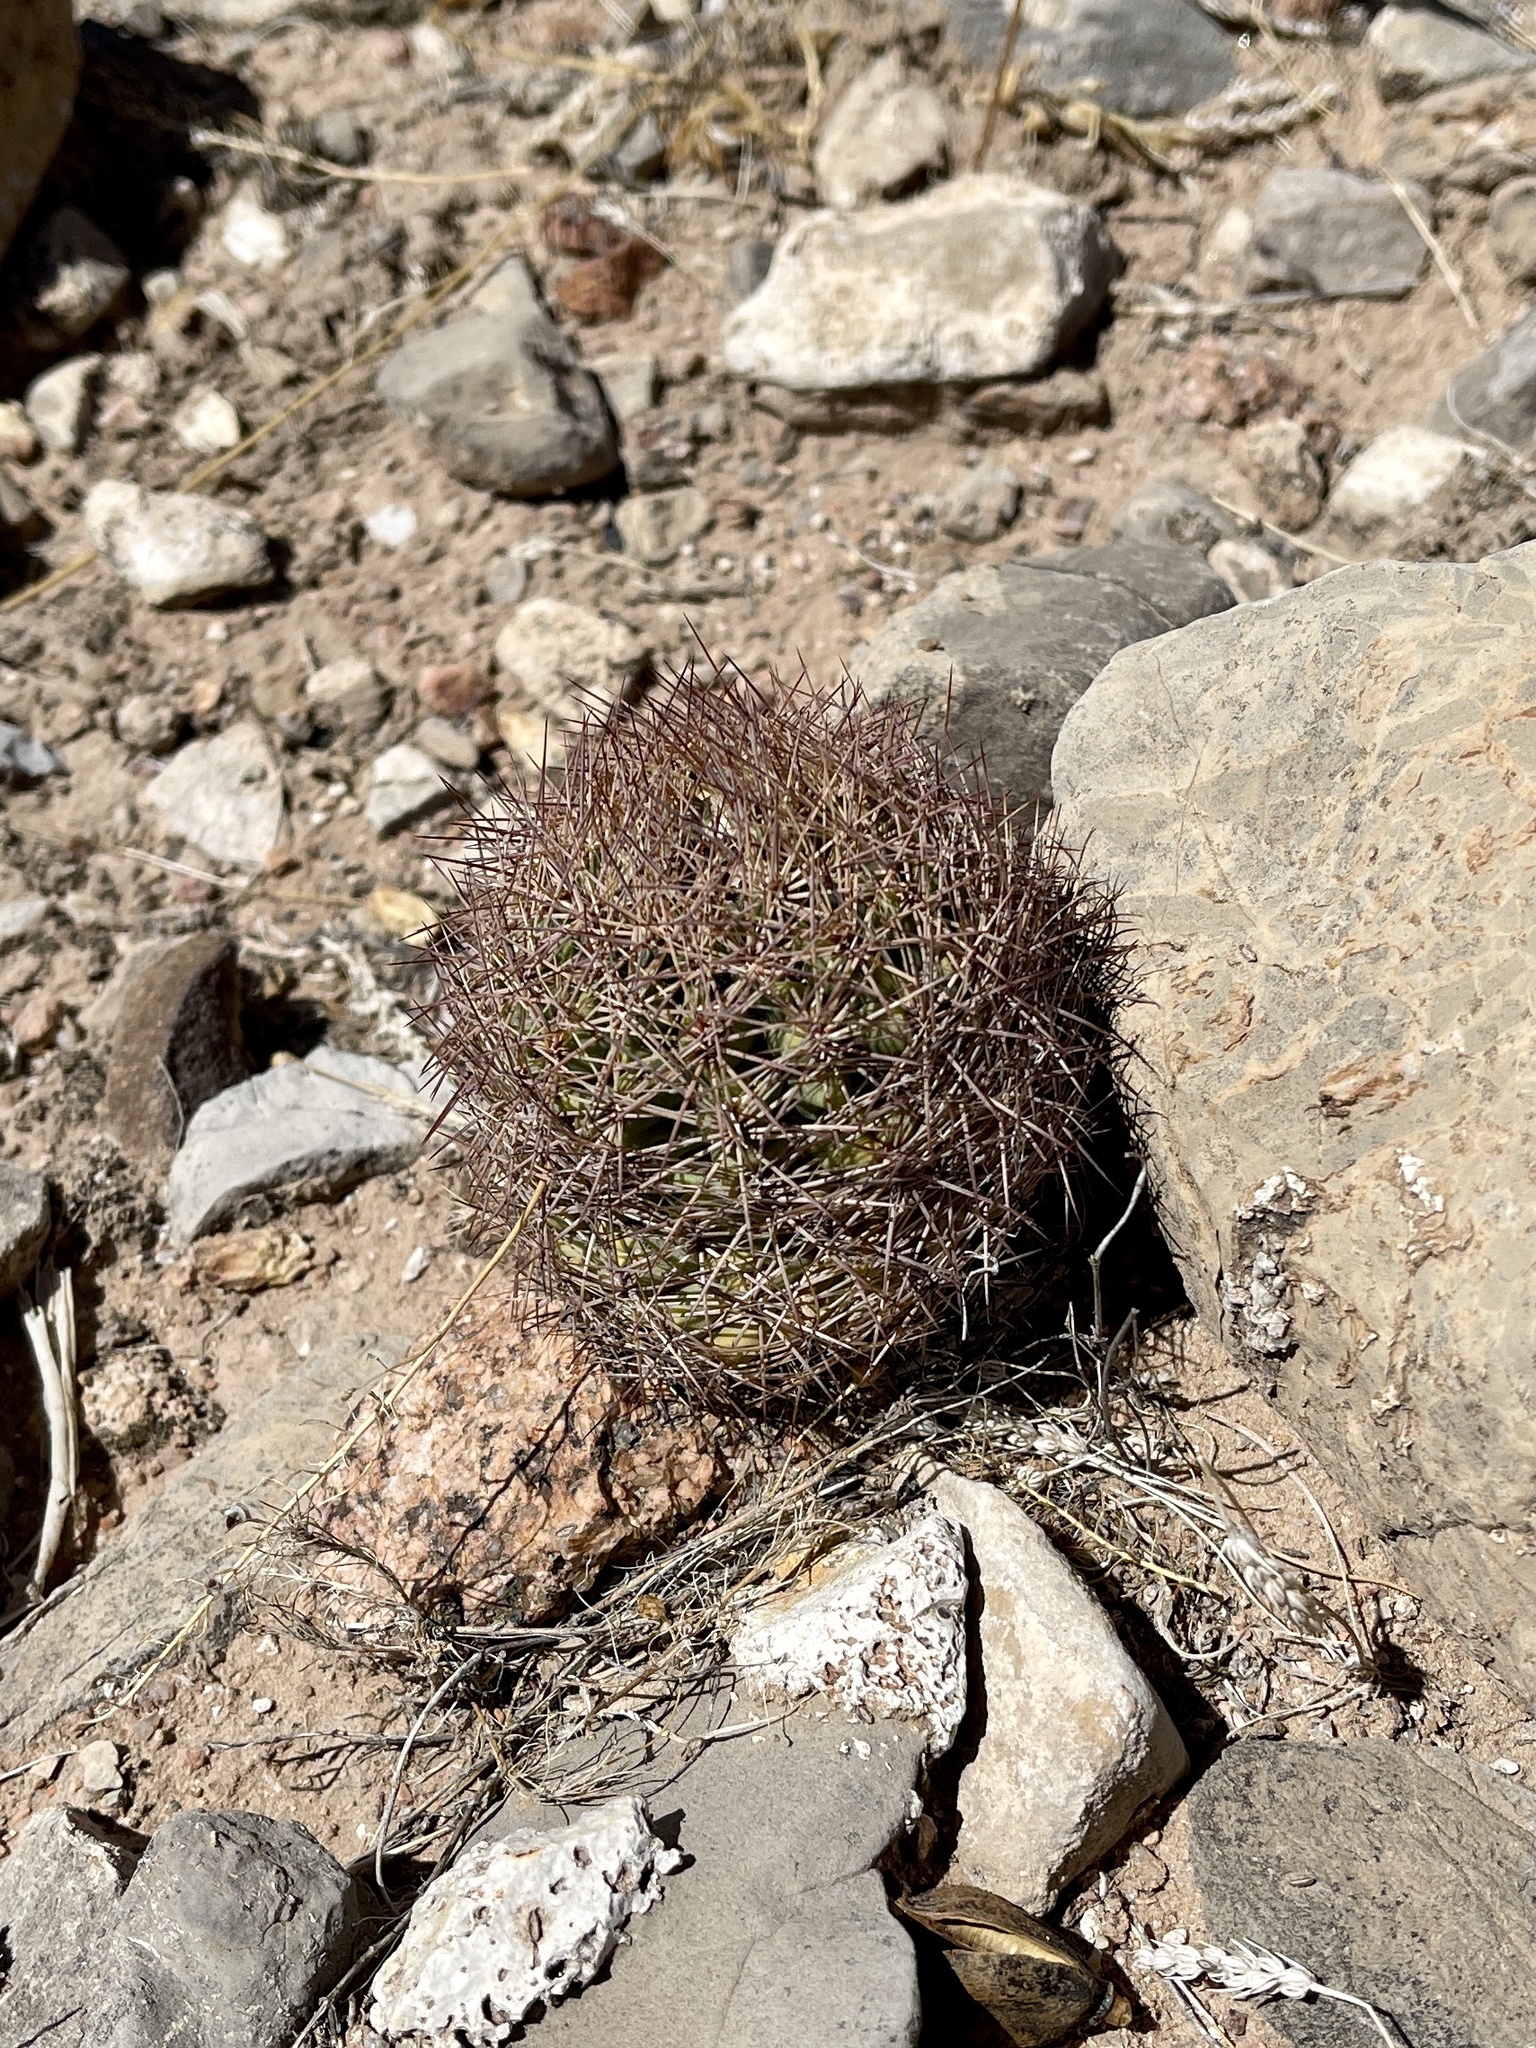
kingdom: Plantae
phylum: Tracheophyta
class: Magnoliopsida
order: Caryophyllales
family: Cactaceae
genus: Sclerocactus
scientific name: Sclerocactus intertextus
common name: White fish-hook cactus
